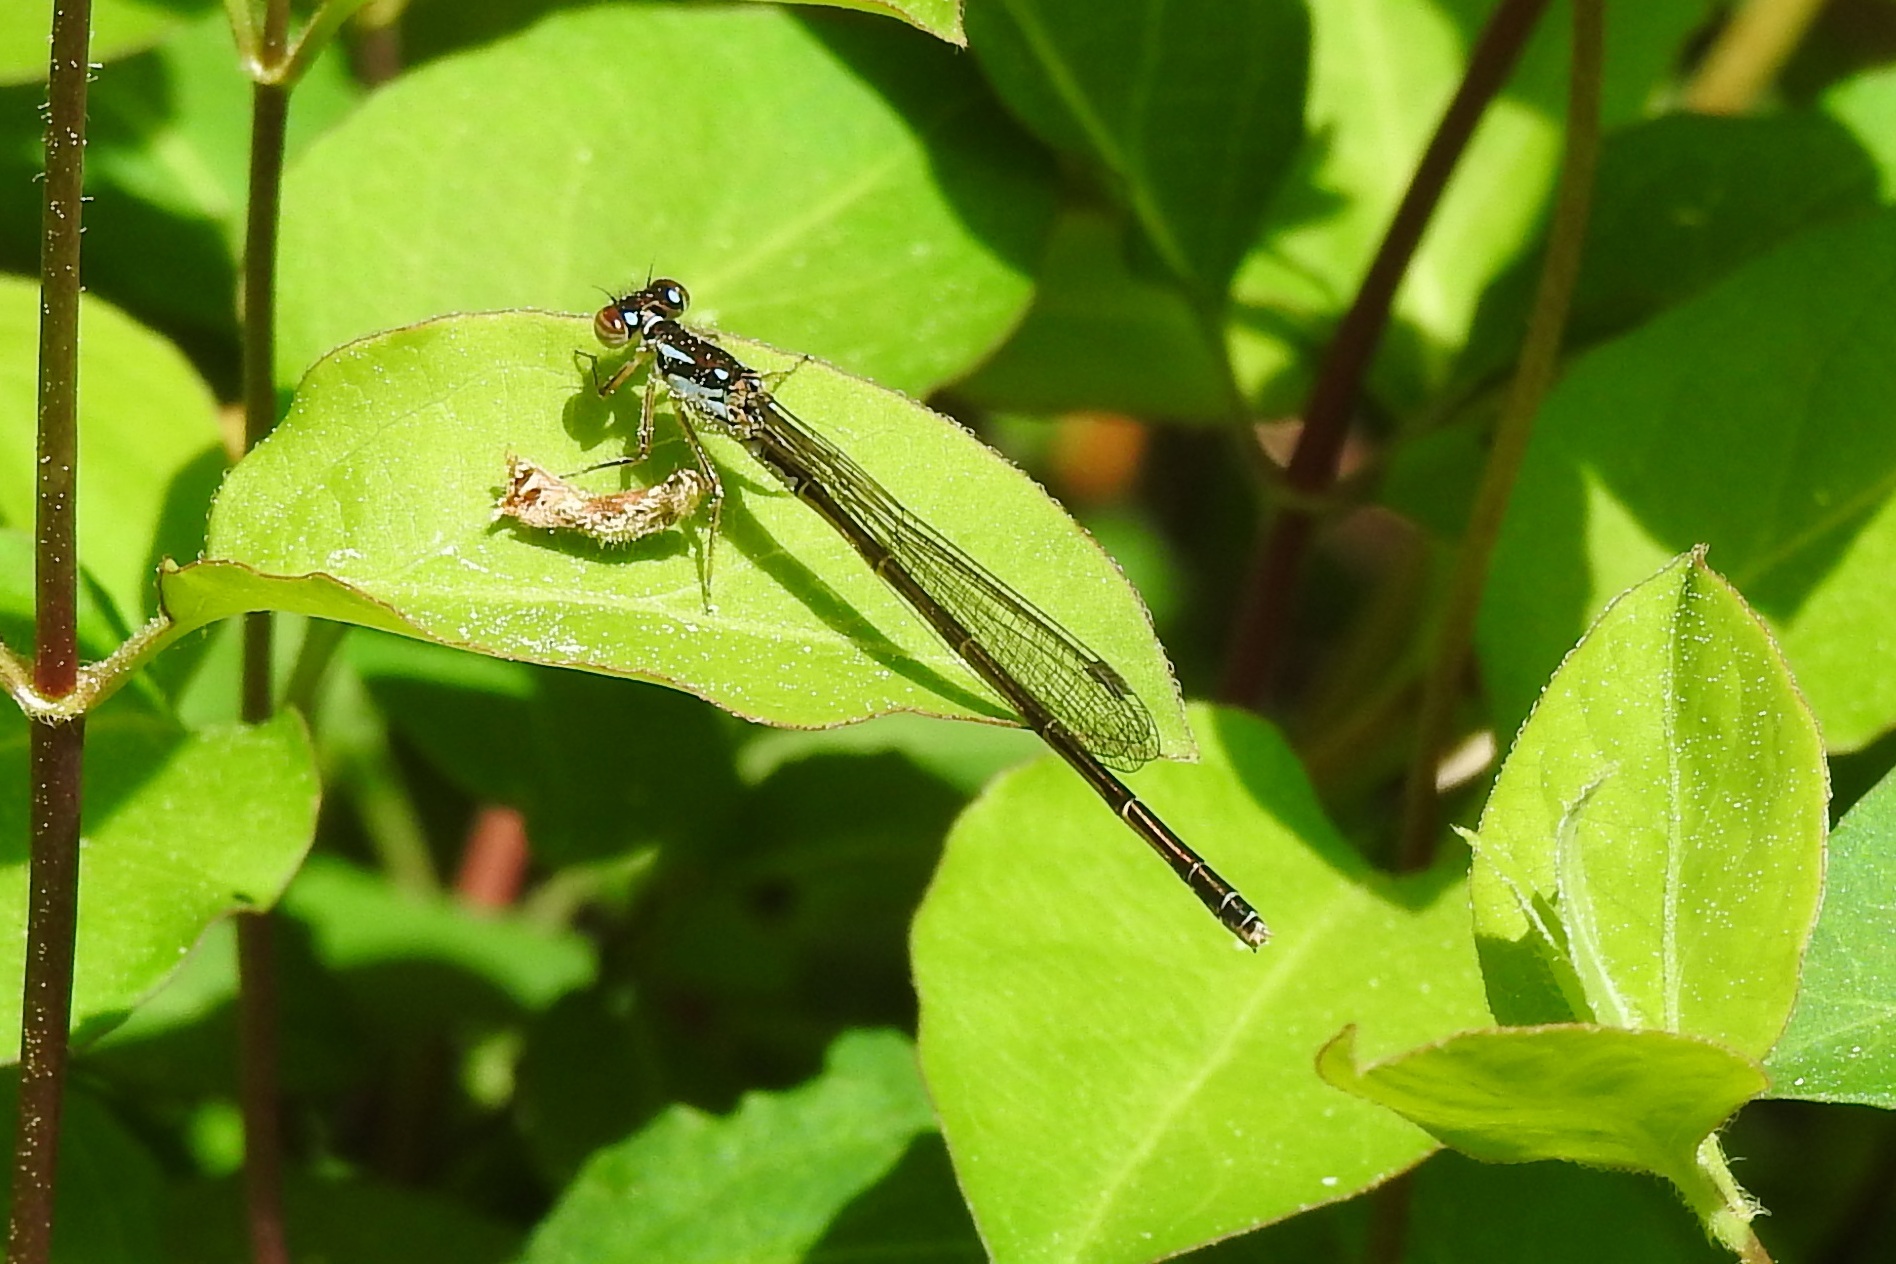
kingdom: Animalia
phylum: Arthropoda
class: Insecta
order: Odonata
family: Coenagrionidae
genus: Ischnura
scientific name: Ischnura posita
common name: Fragile forktail
